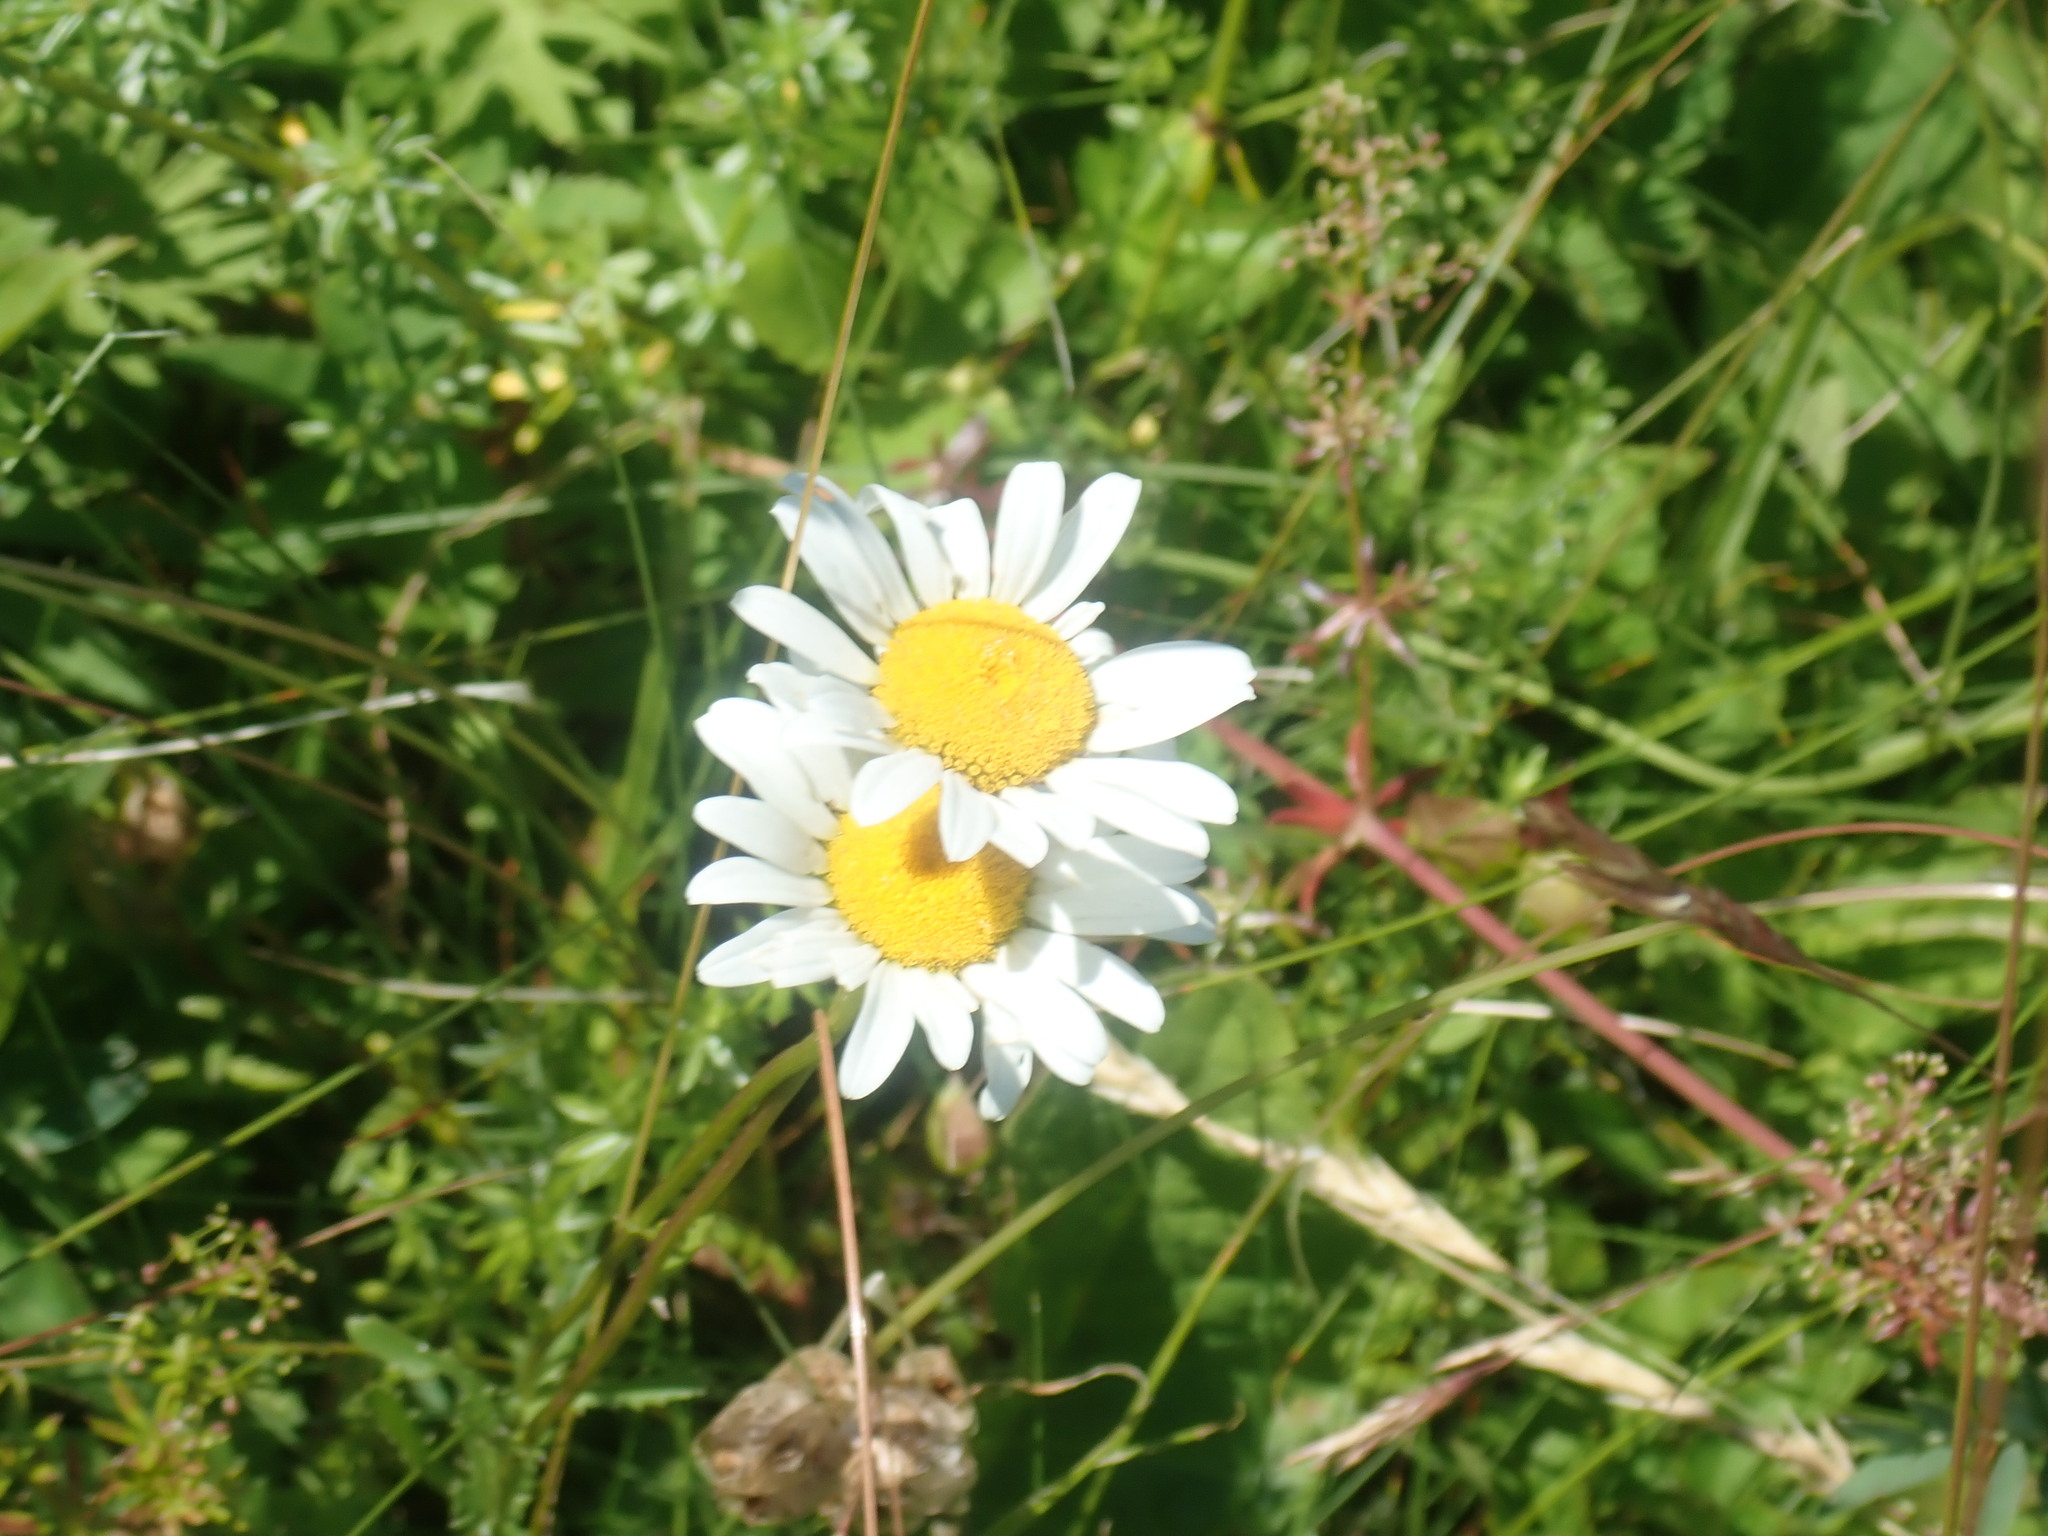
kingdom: Plantae
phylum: Tracheophyta
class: Magnoliopsida
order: Asterales
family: Asteraceae
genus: Leucanthemum
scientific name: Leucanthemum vulgare
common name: Oxeye daisy
